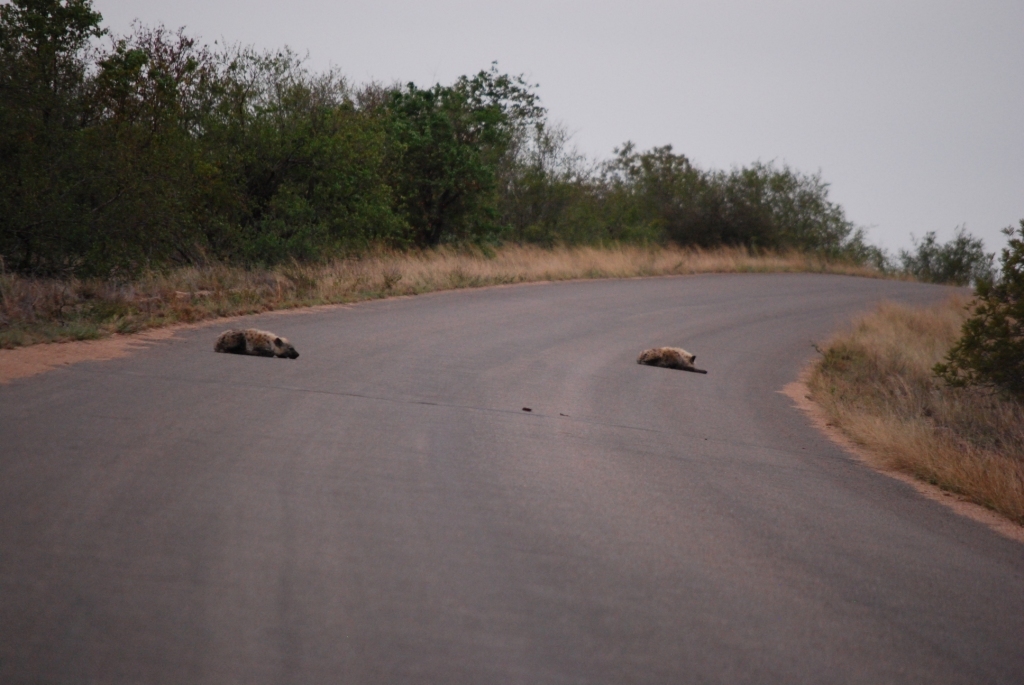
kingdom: Animalia
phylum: Chordata
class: Mammalia
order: Carnivora
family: Hyaenidae
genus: Crocuta
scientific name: Crocuta crocuta
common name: Spotted hyaena
